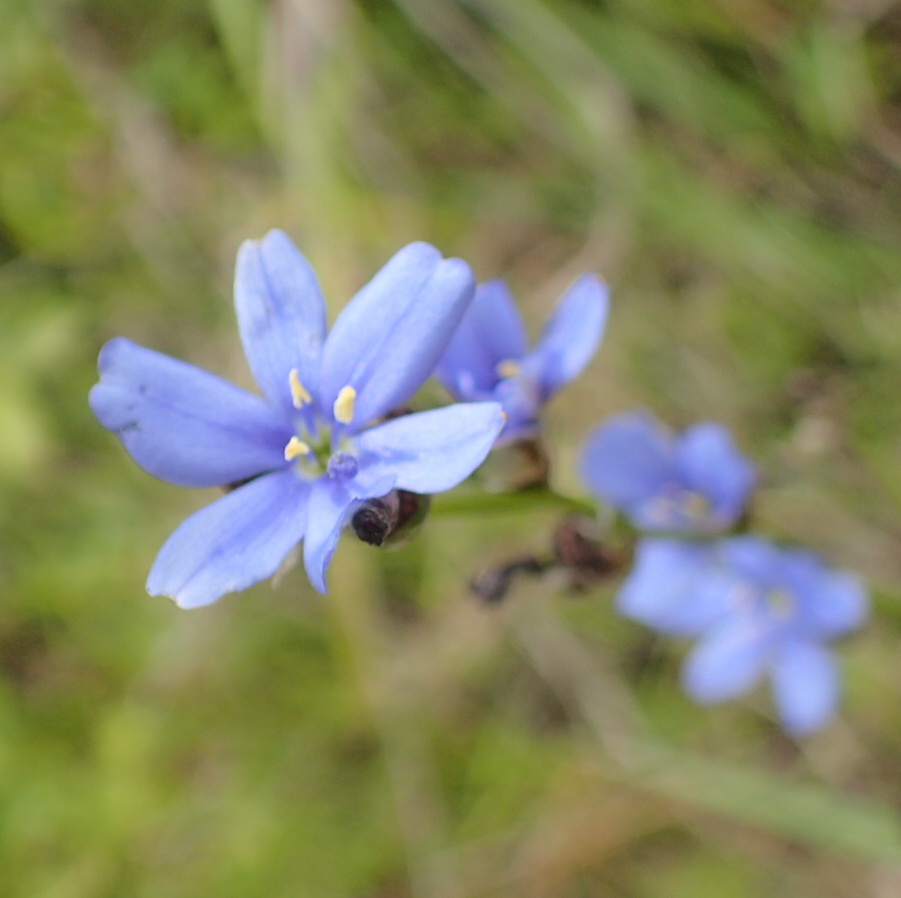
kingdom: Plantae
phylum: Tracheophyta
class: Liliopsida
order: Asparagales
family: Iridaceae
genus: Aristea
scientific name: Aristea torulosa
